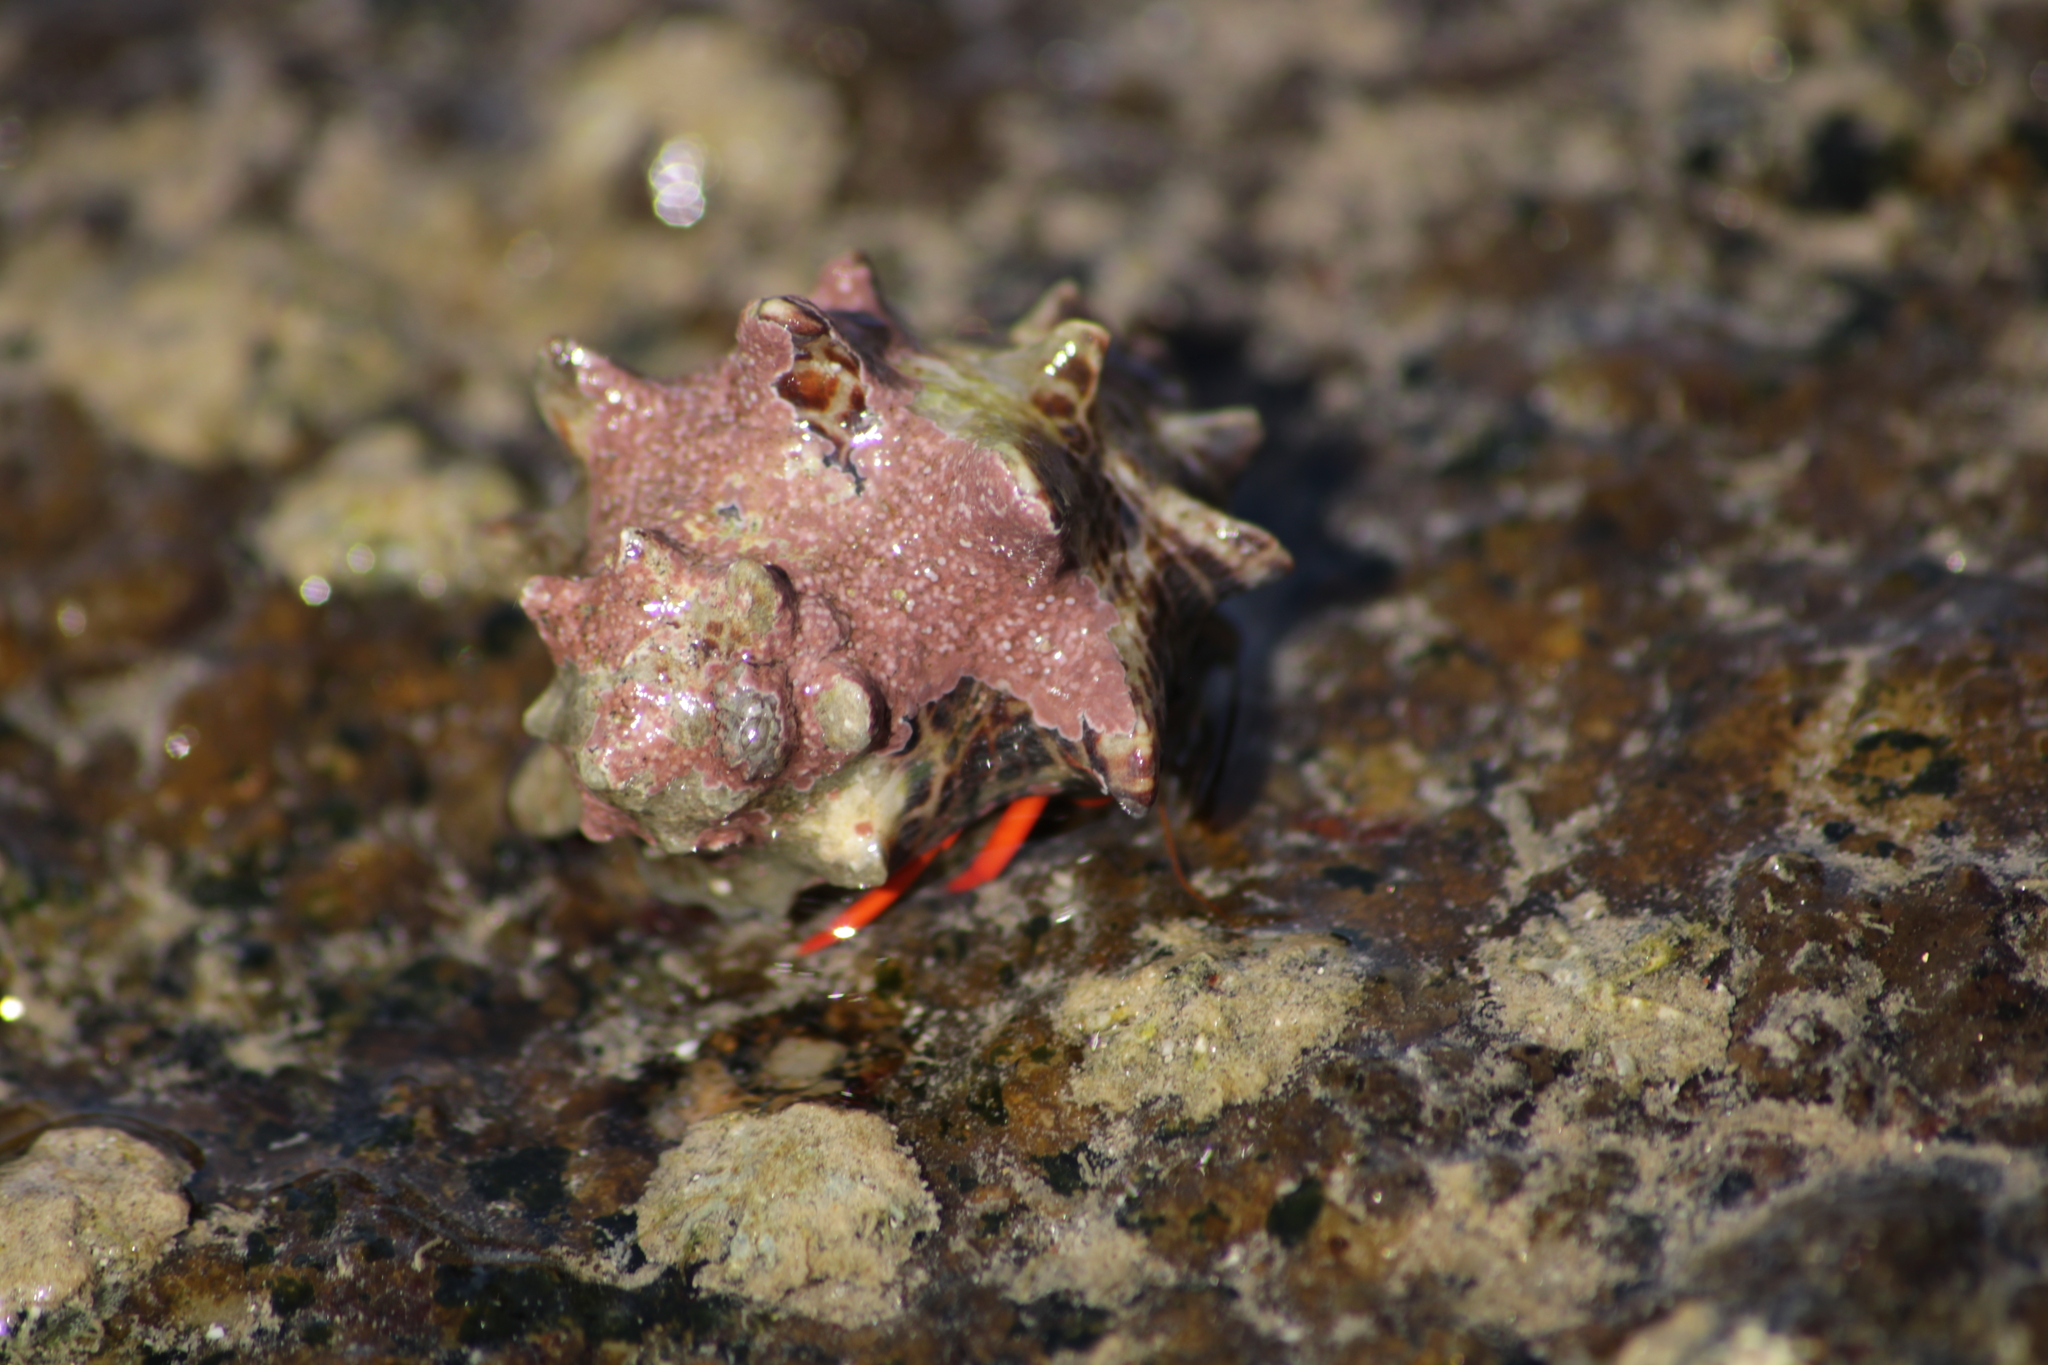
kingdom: Animalia
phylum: Arthropoda
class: Malacostraca
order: Decapoda
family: Diogenidae
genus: Calcinus
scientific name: Calcinus californiensis
